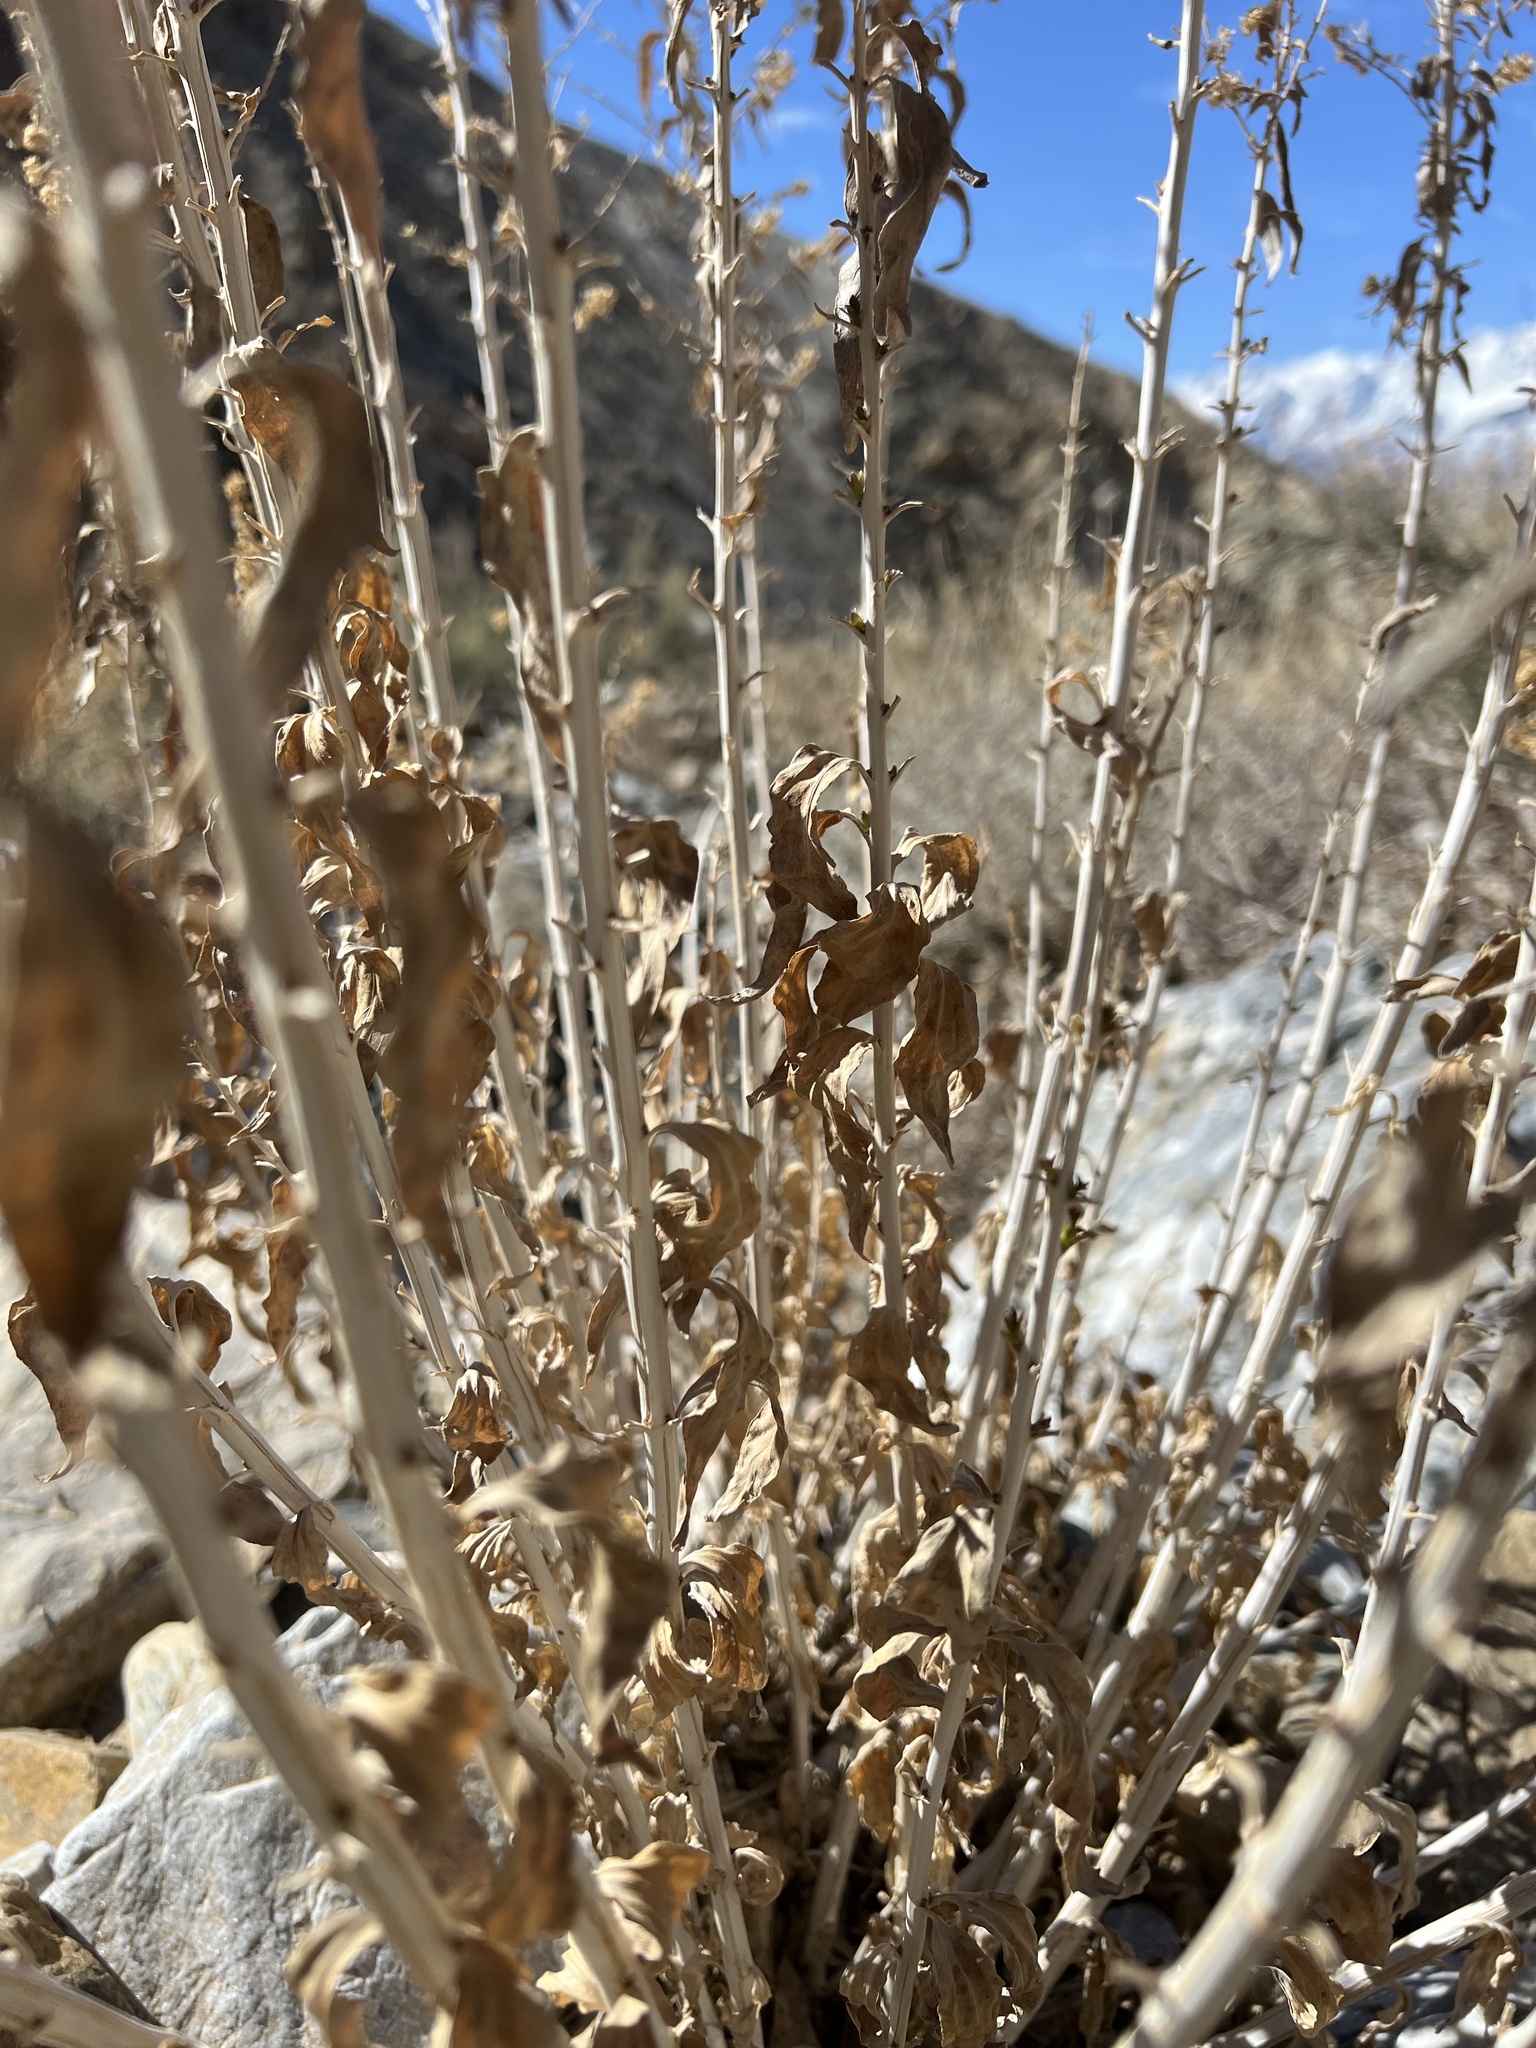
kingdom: Plantae
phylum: Tracheophyta
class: Magnoliopsida
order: Asterales
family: Asteraceae
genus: Brickellia
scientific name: Brickellia longifolia
